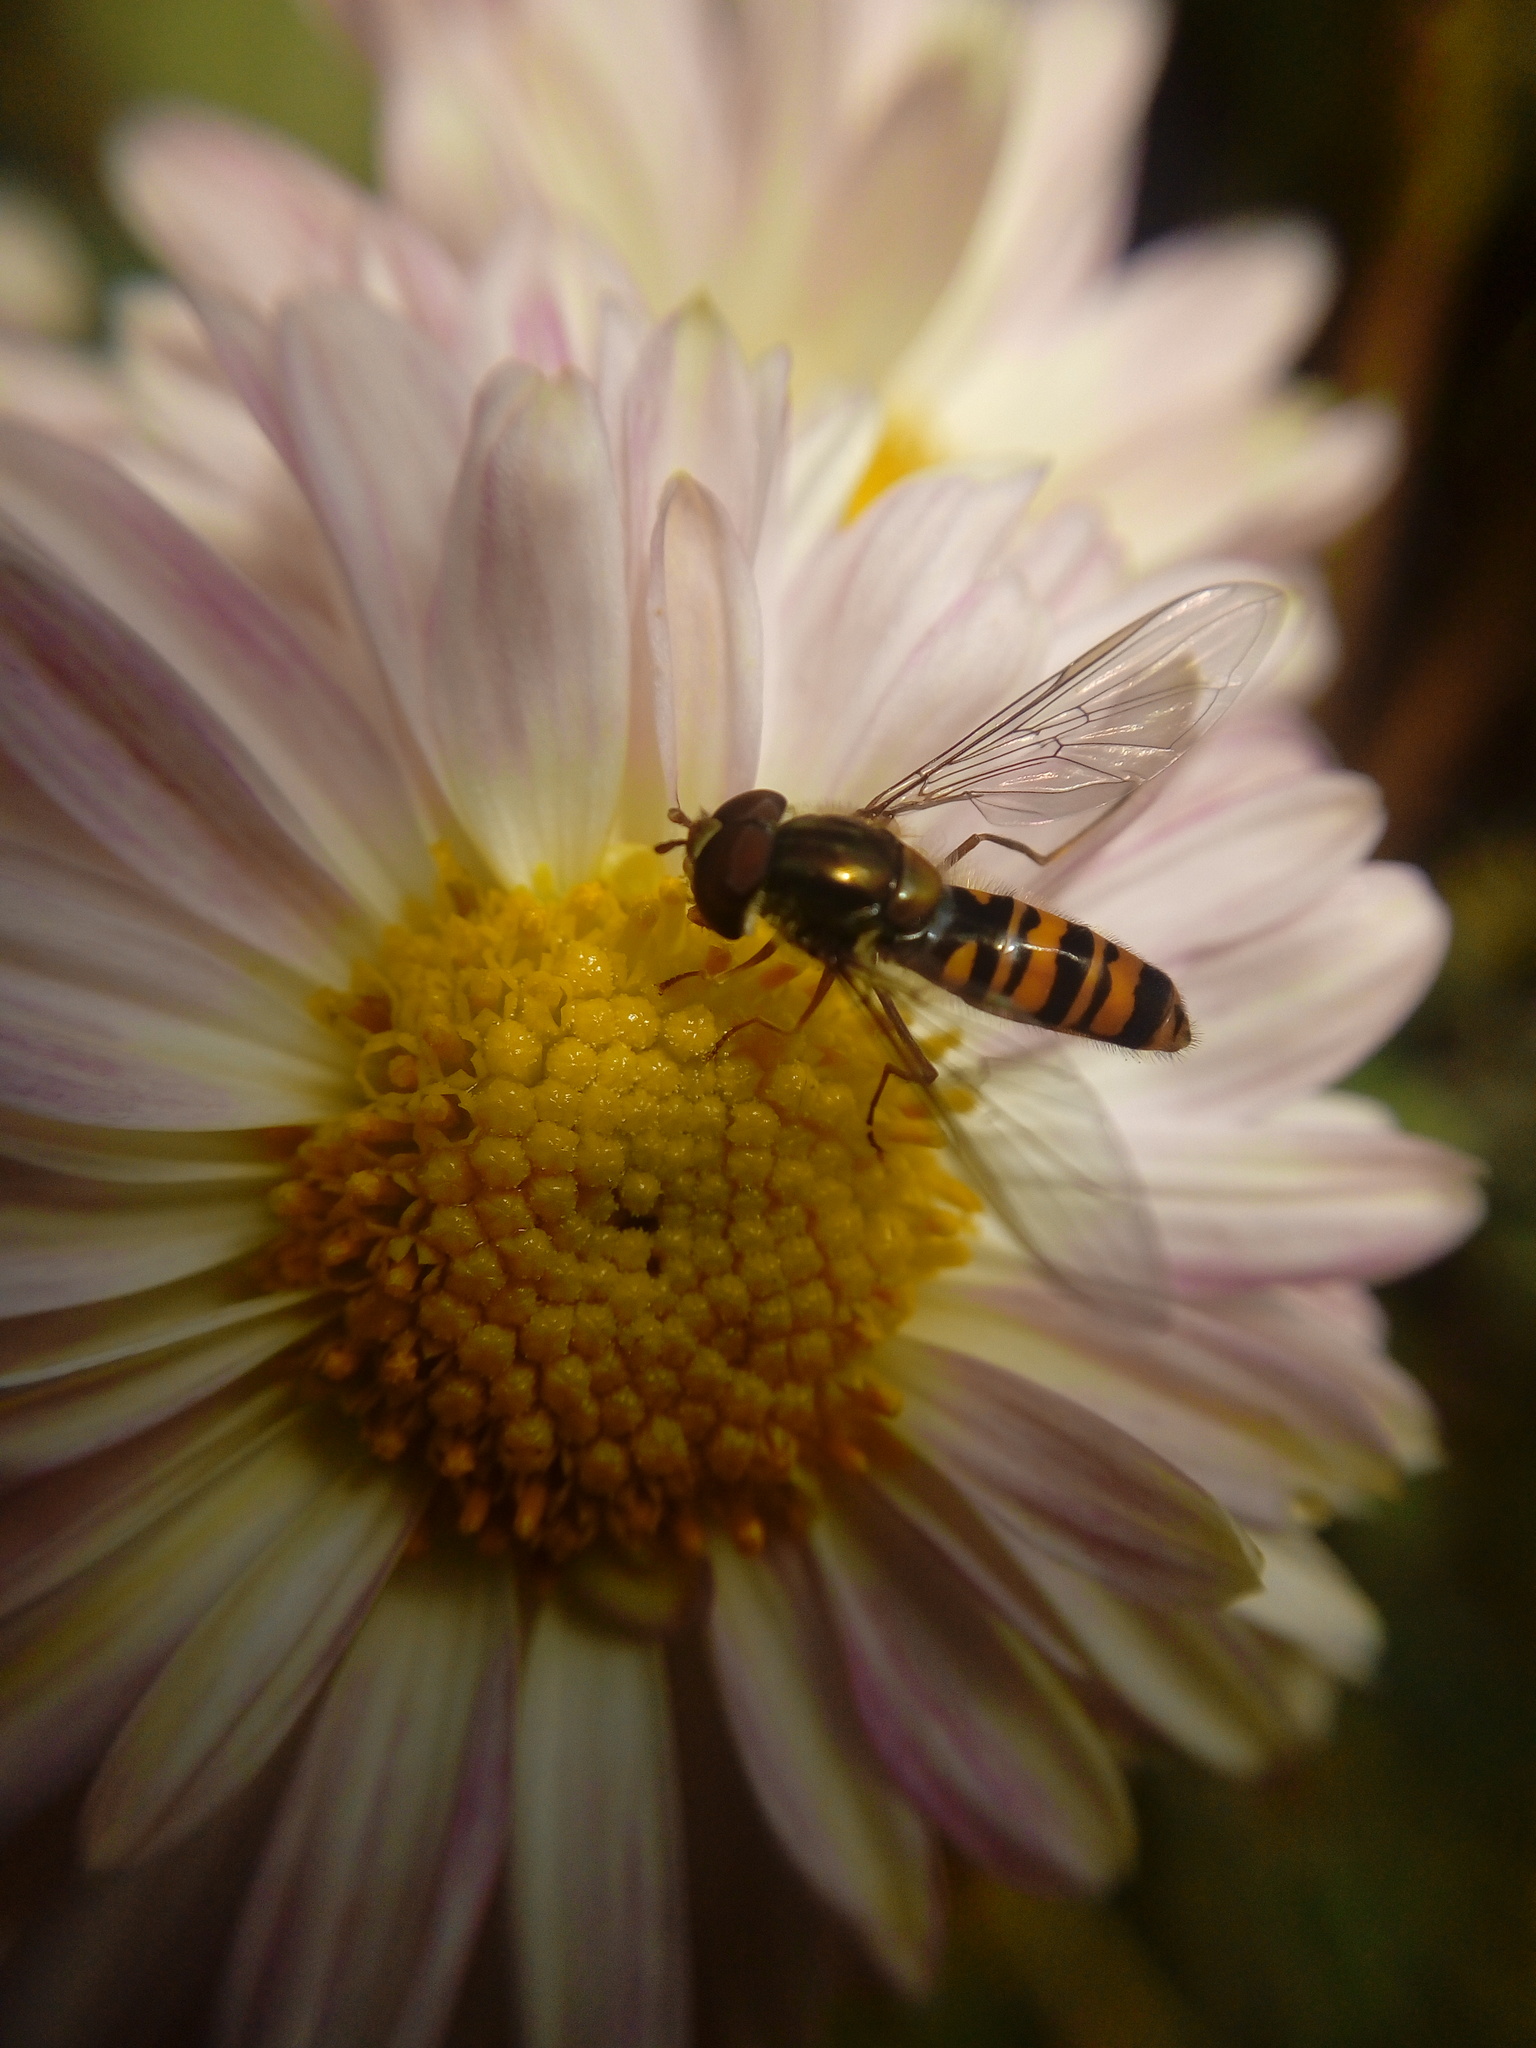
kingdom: Animalia
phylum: Arthropoda
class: Insecta
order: Diptera
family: Syrphidae
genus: Episyrphus
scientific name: Episyrphus balteatus
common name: Marmalade hoverfly
